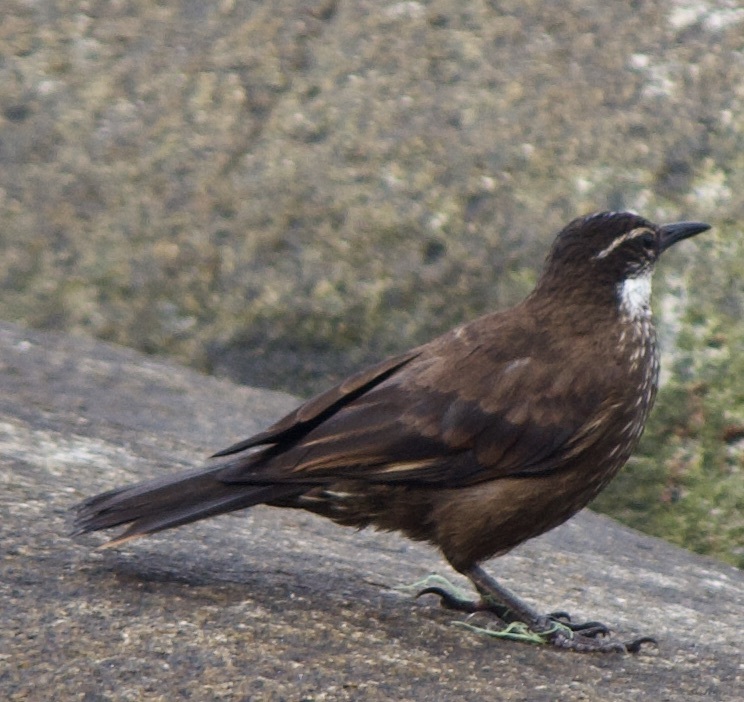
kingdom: Animalia
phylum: Chordata
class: Aves
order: Passeriformes
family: Furnariidae
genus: Cinclodes
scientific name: Cinclodes nigrofumosus
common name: Chilean seaside cinclodes
